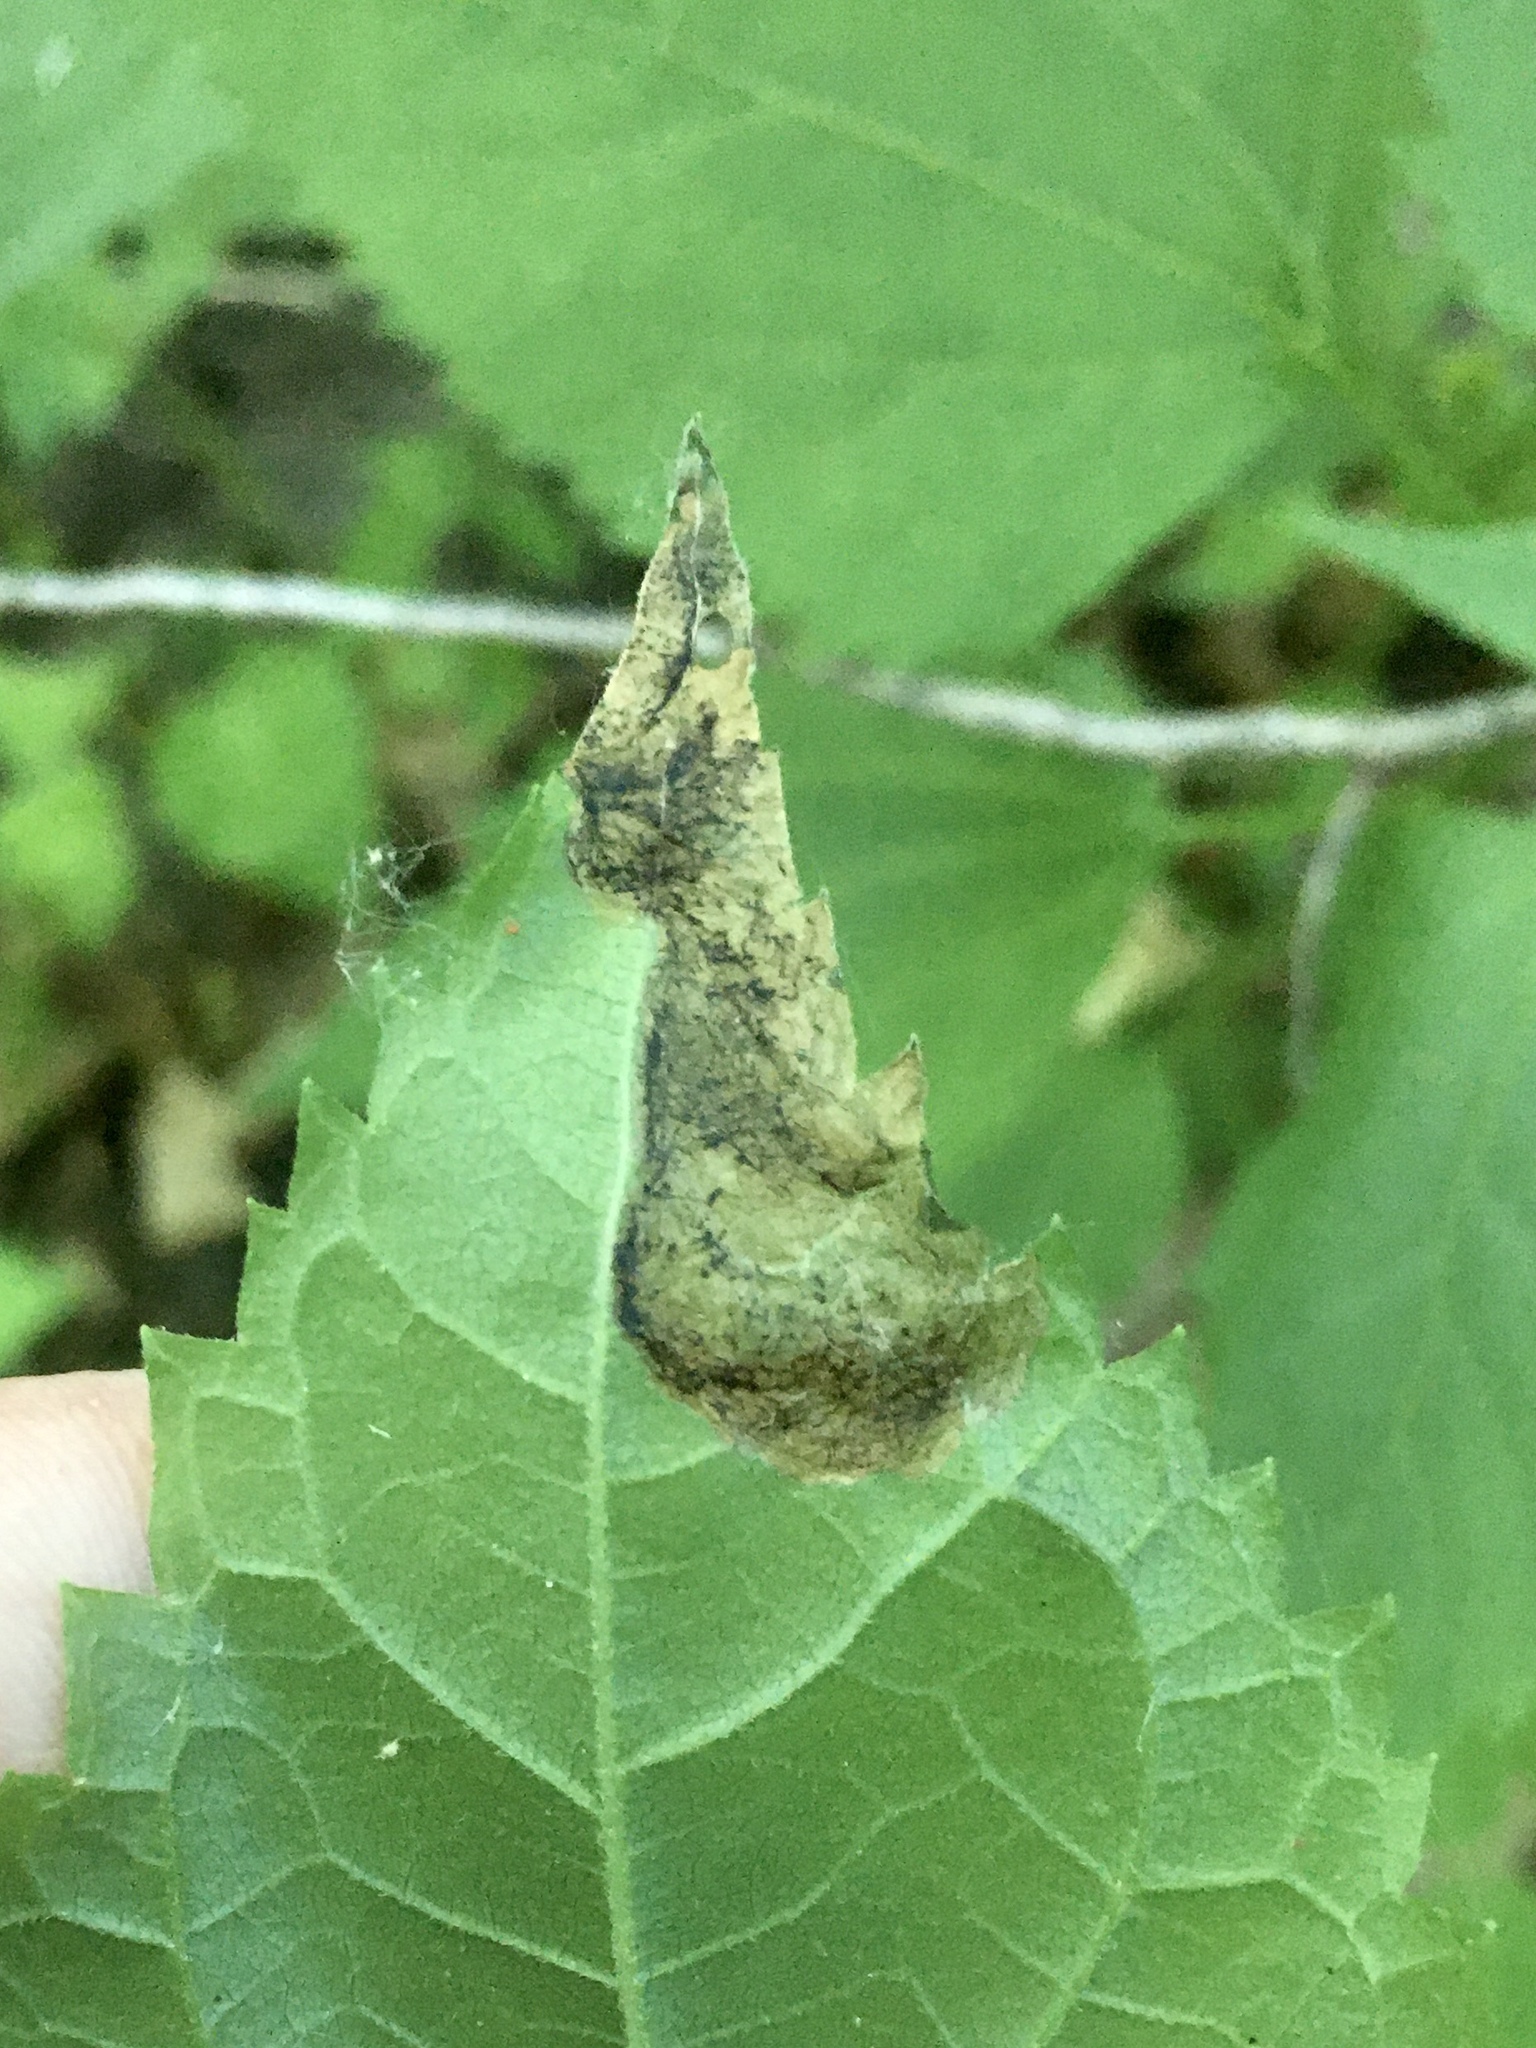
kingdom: Animalia
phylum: Arthropoda
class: Insecta
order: Coleoptera
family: Chrysomelidae
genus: Sumitrosis
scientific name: Sumitrosis inaequalis
